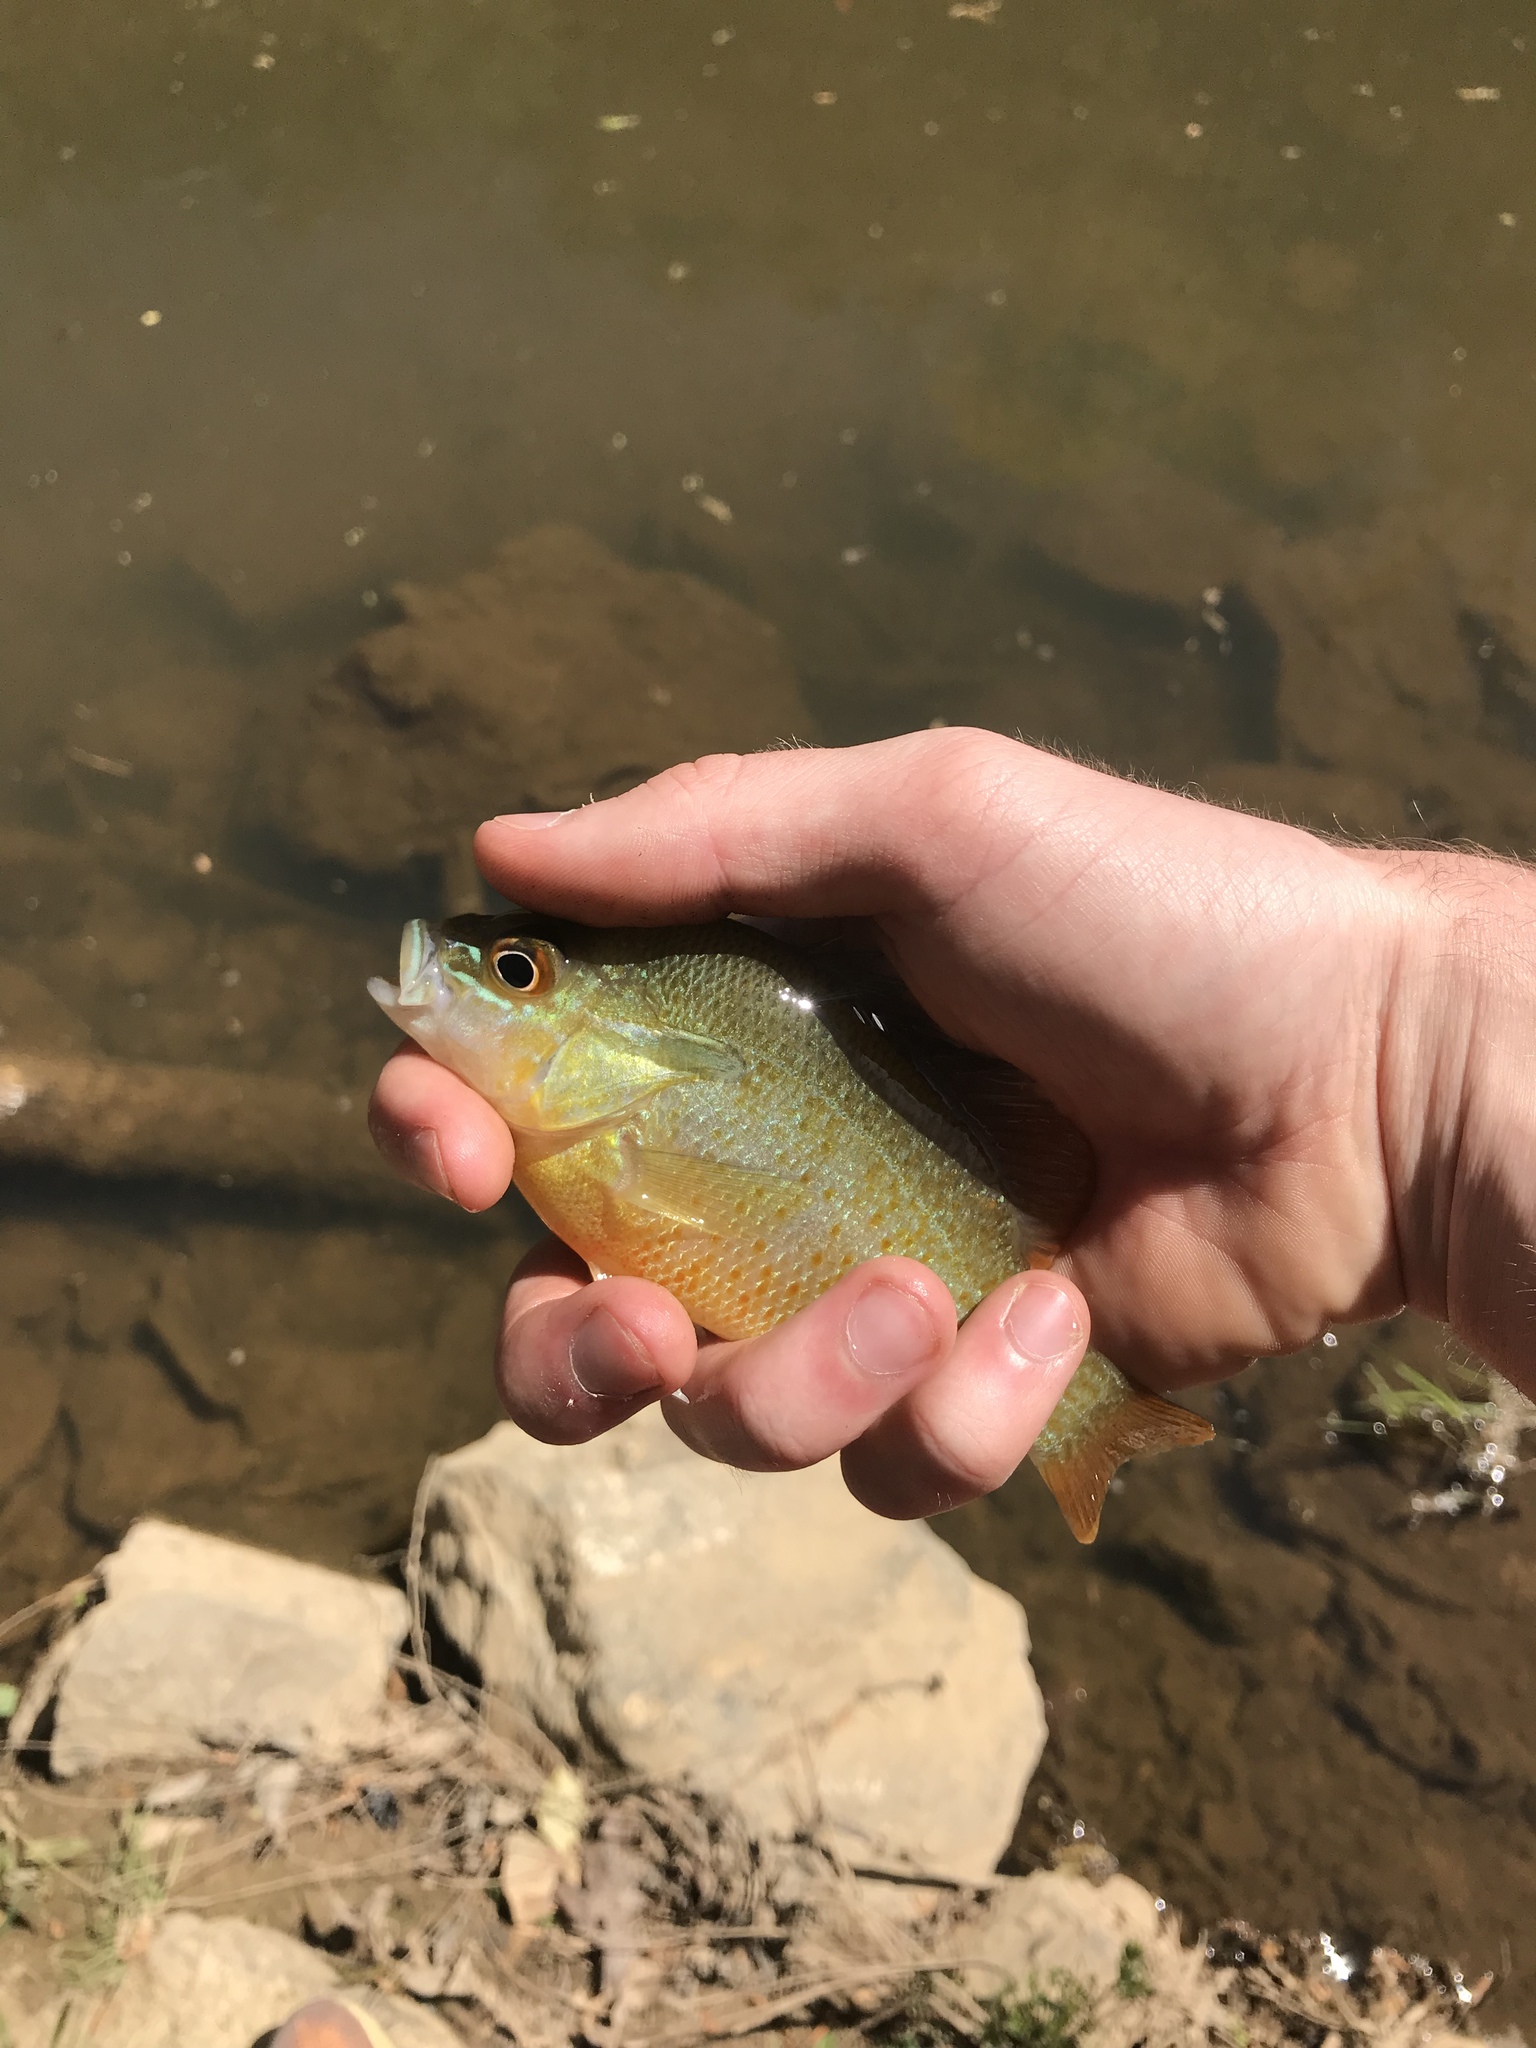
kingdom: Animalia
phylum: Chordata
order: Perciformes
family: Centrarchidae
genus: Lepomis
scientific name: Lepomis auritus
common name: Redbreast sunfish
